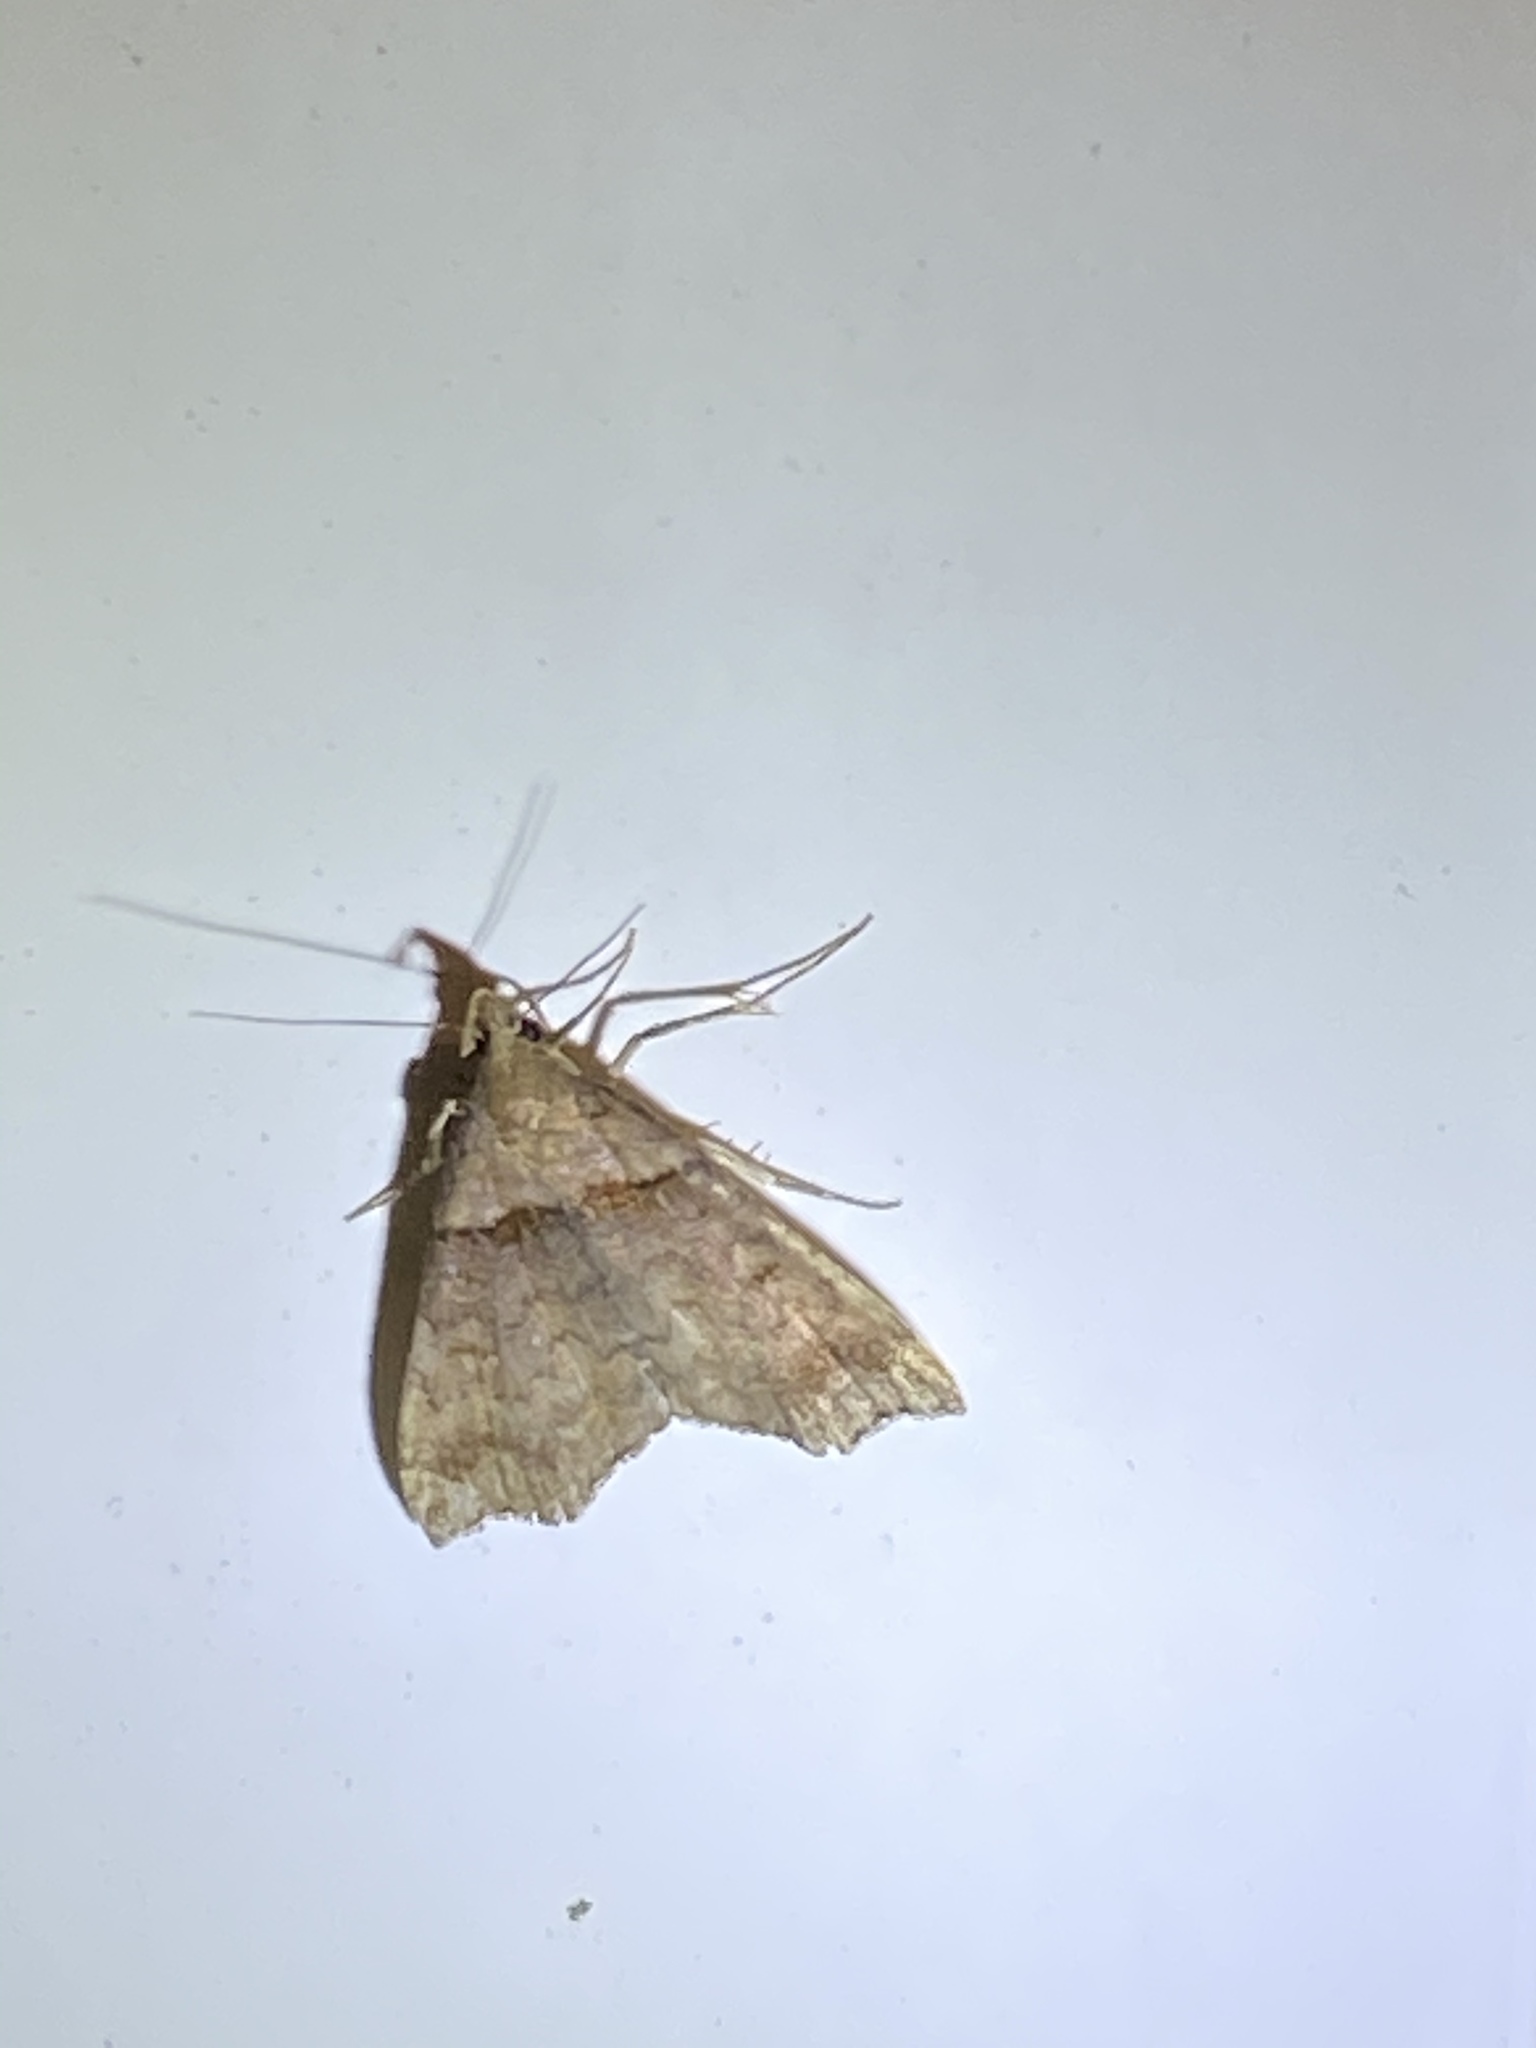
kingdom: Animalia
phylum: Arthropoda
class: Insecta
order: Lepidoptera
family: Erebidae
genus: Lascoria
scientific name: Lascoria ambigualis
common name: Ambiguous moth
